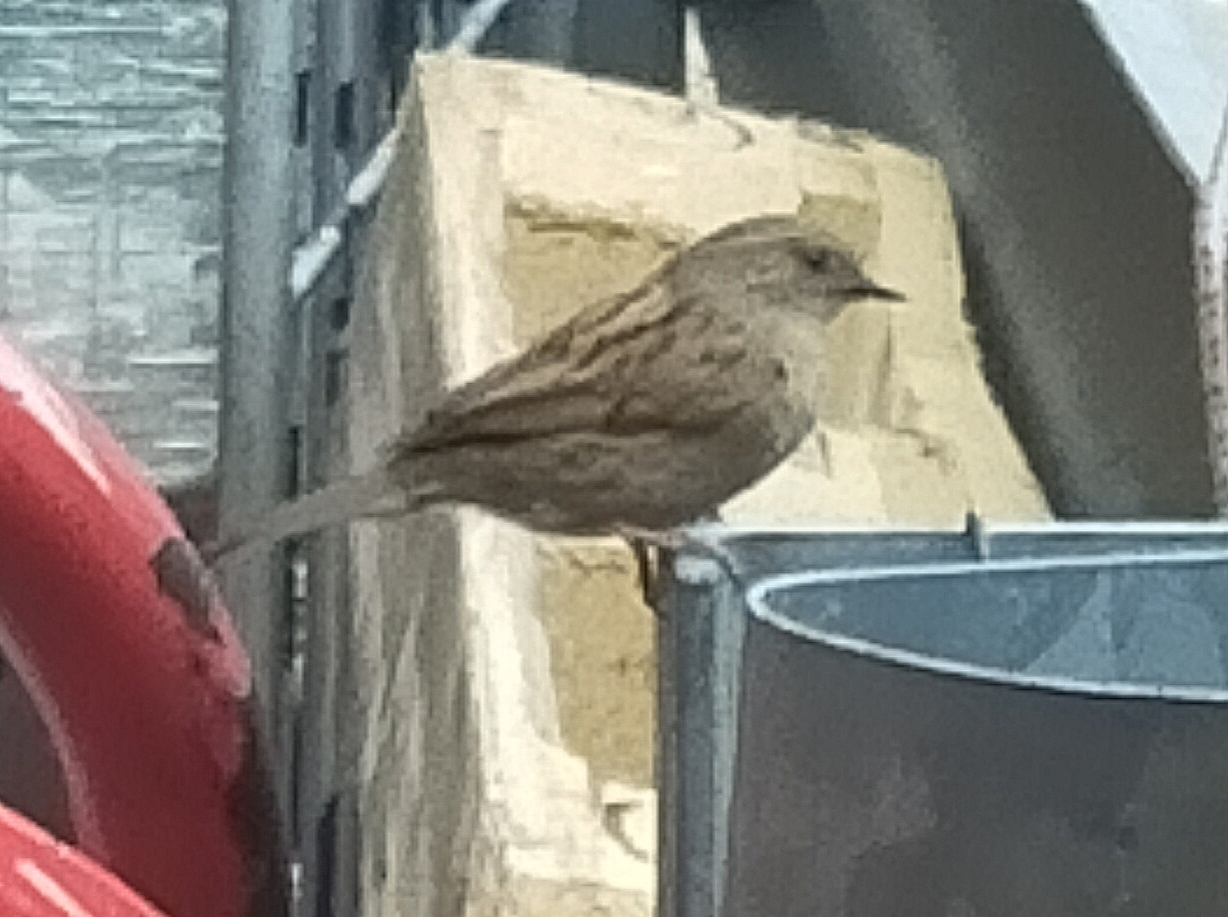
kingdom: Animalia
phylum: Chordata
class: Aves
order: Passeriformes
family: Prunellidae
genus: Prunella
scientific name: Prunella modularis
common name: Dunnock
